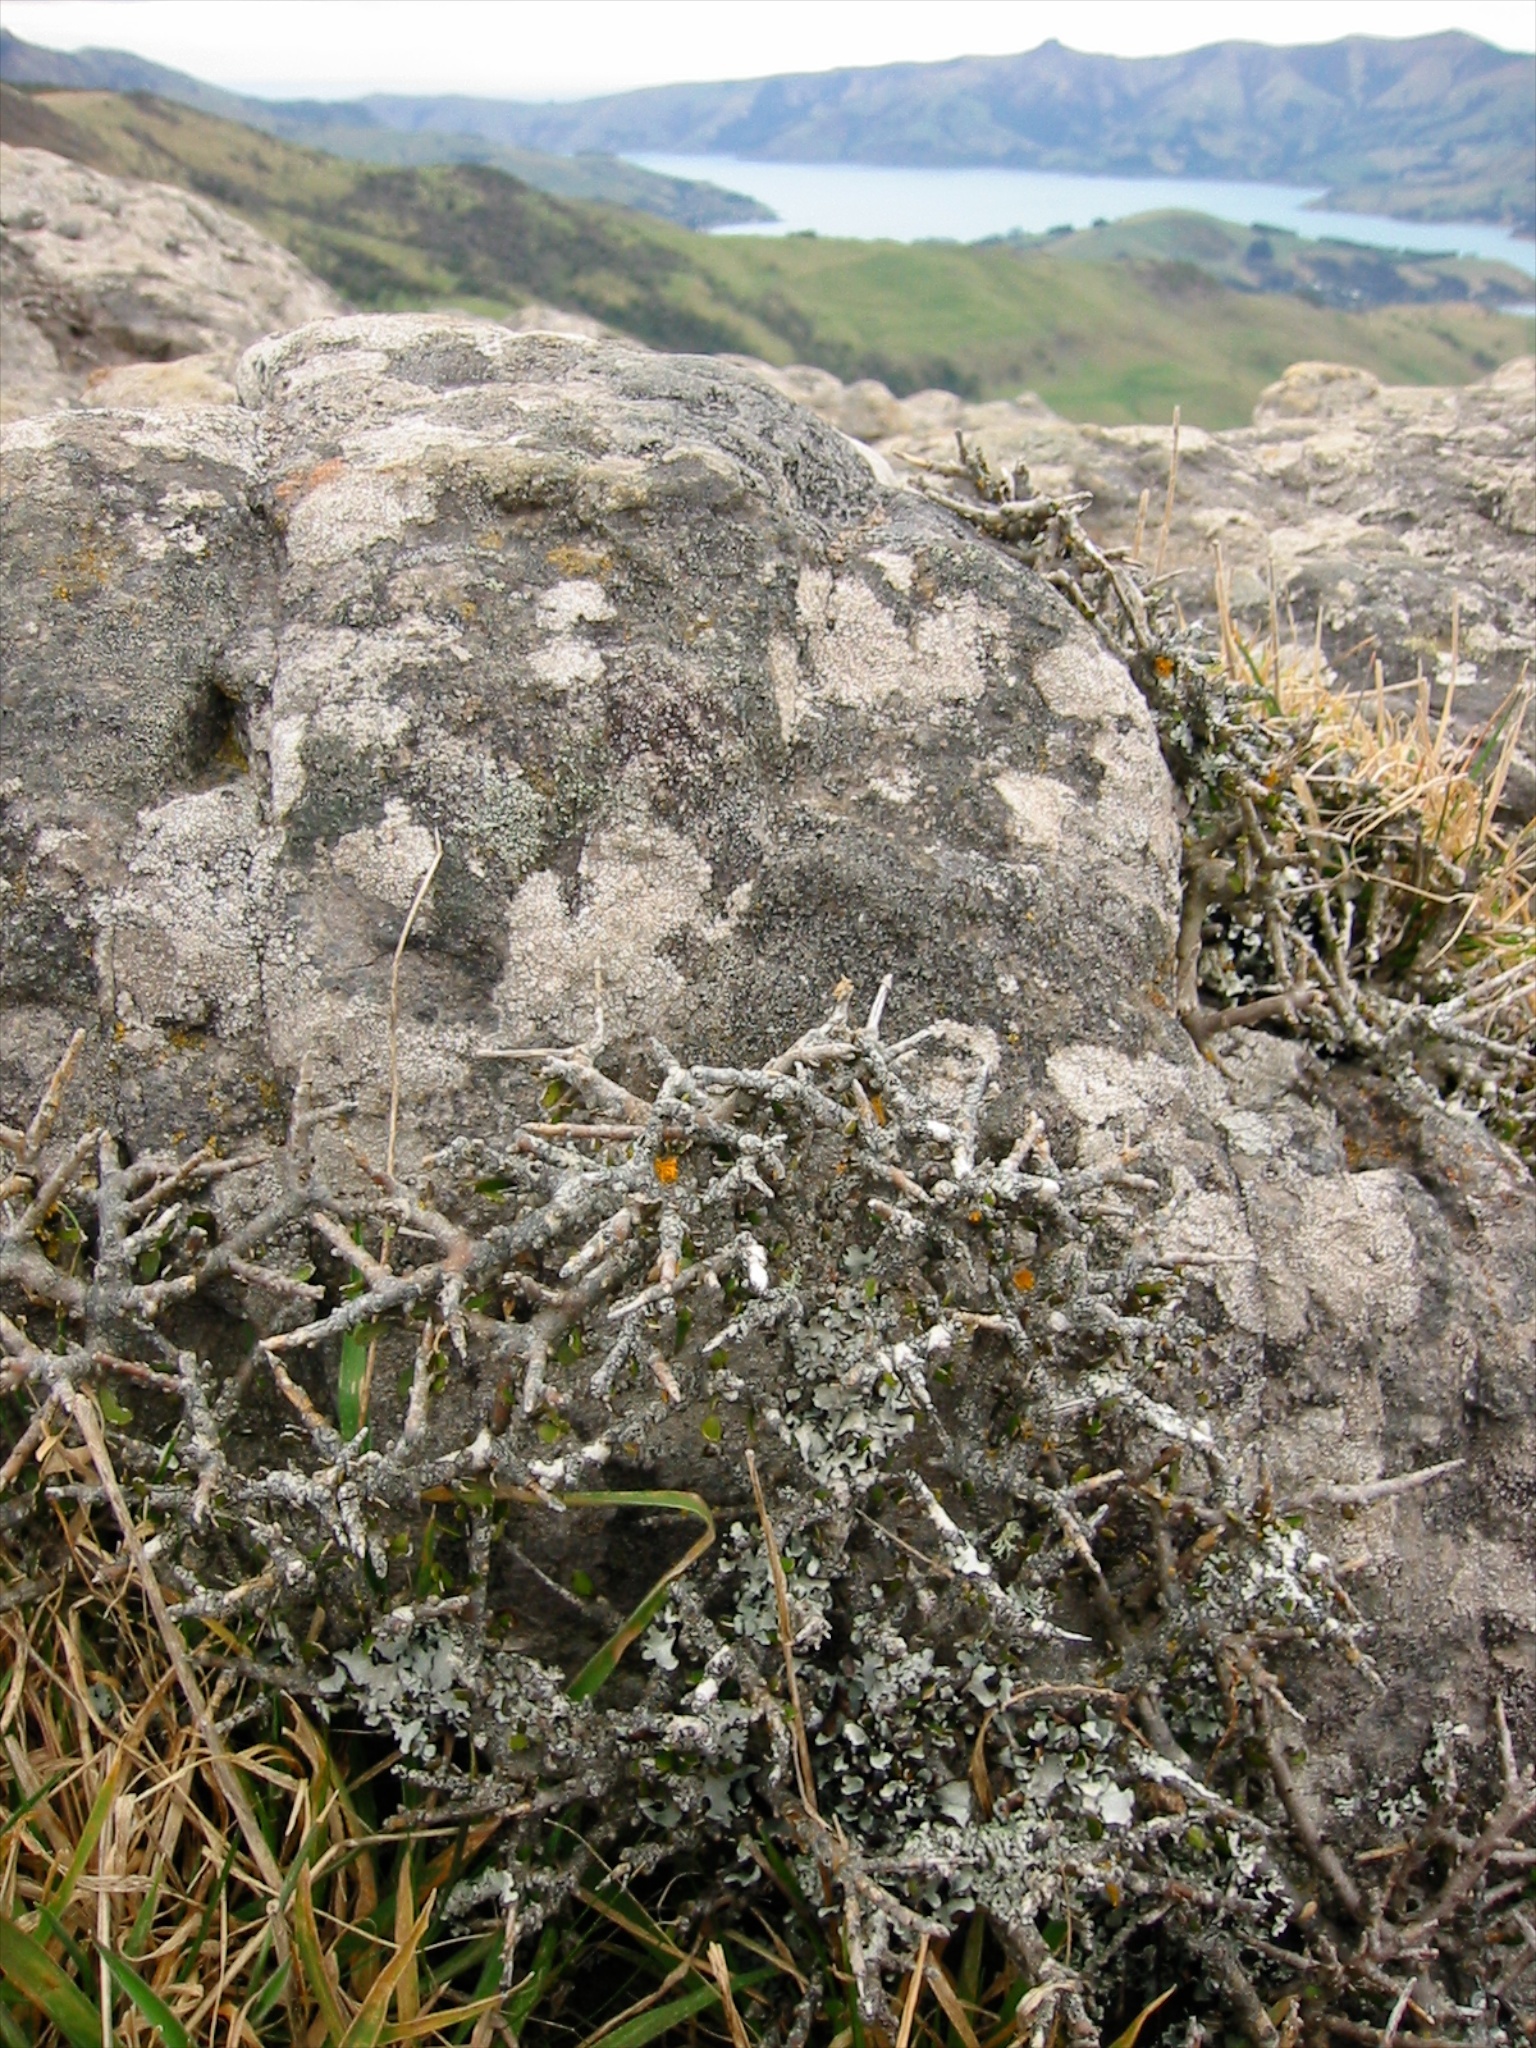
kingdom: Plantae
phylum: Tracheophyta
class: Magnoliopsida
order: Malpighiales
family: Violaceae
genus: Melicytus
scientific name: Melicytus alpinus
